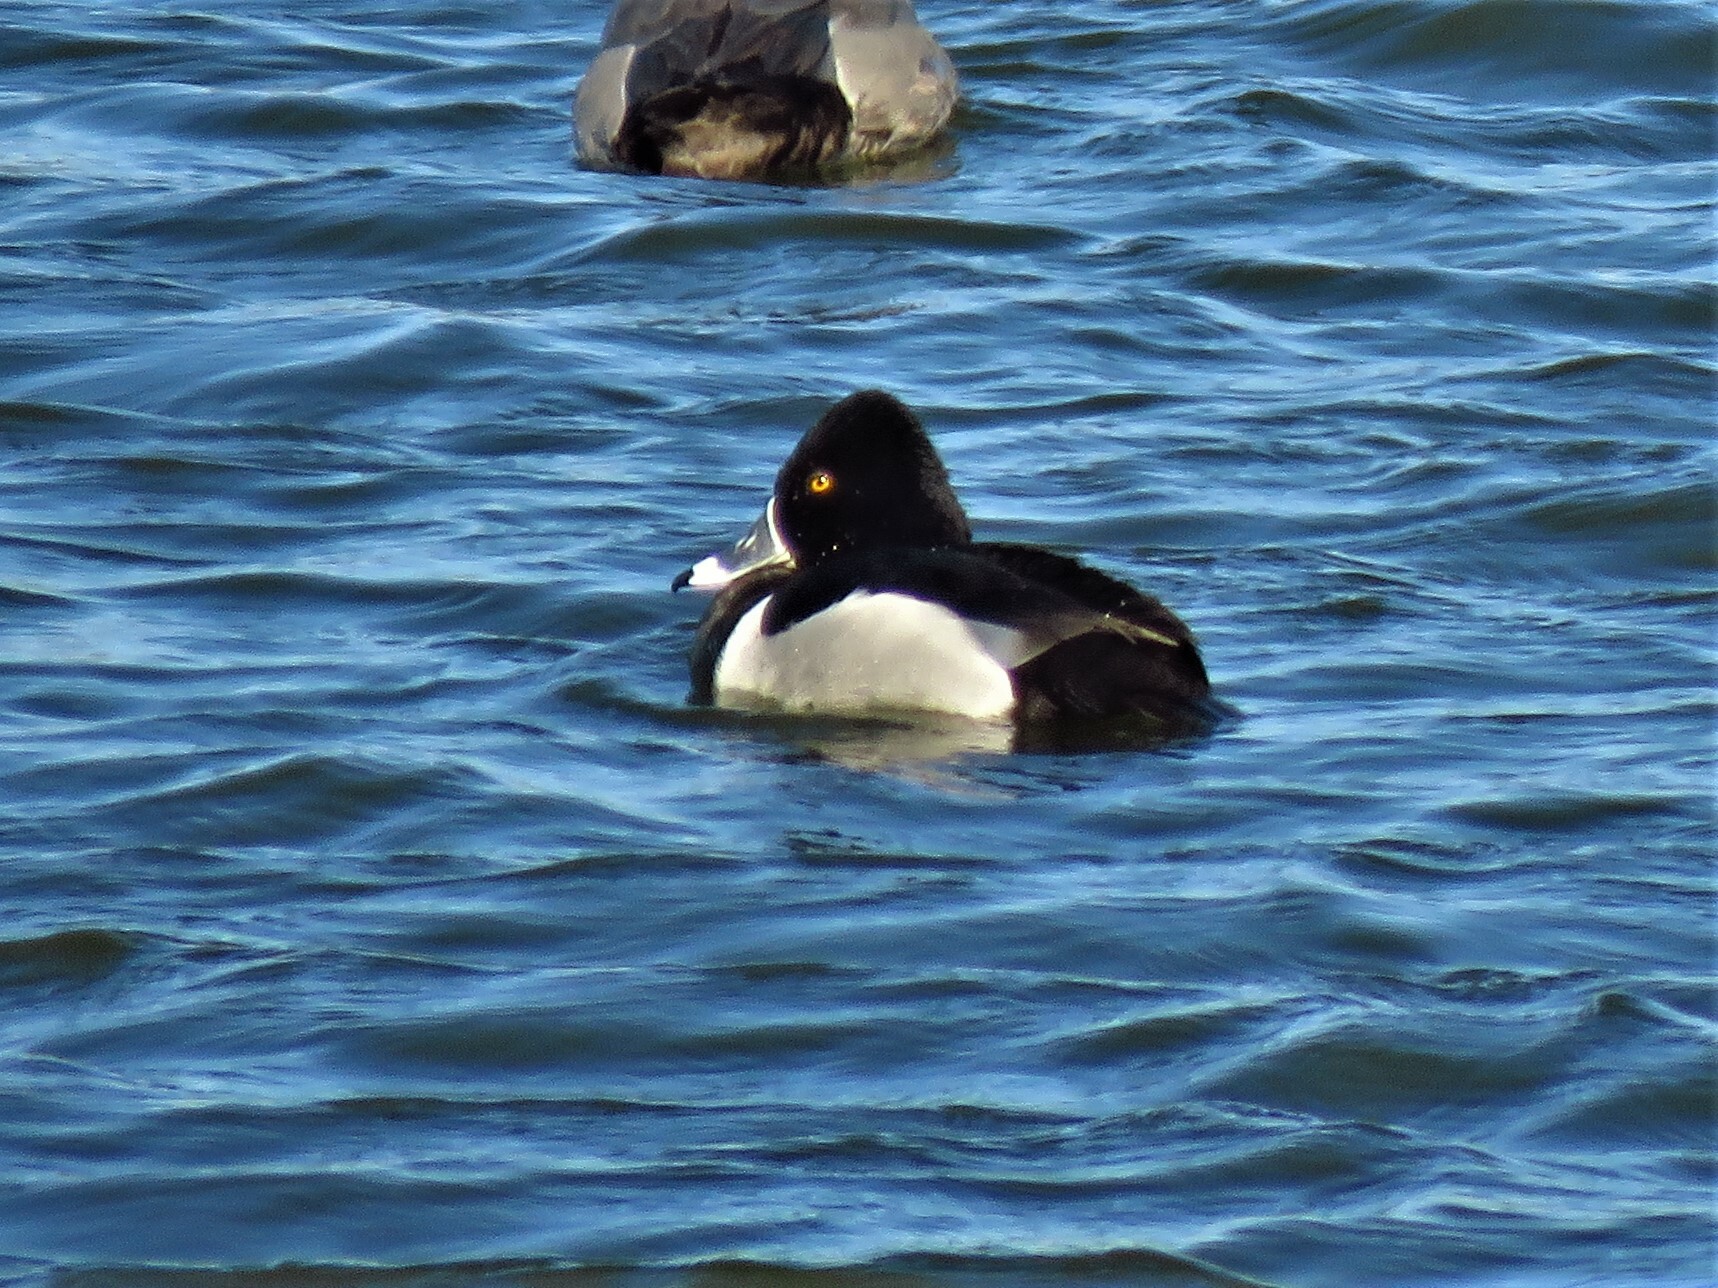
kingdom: Animalia
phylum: Chordata
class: Aves
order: Anseriformes
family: Anatidae
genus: Aythya
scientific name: Aythya collaris
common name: Ring-necked duck
